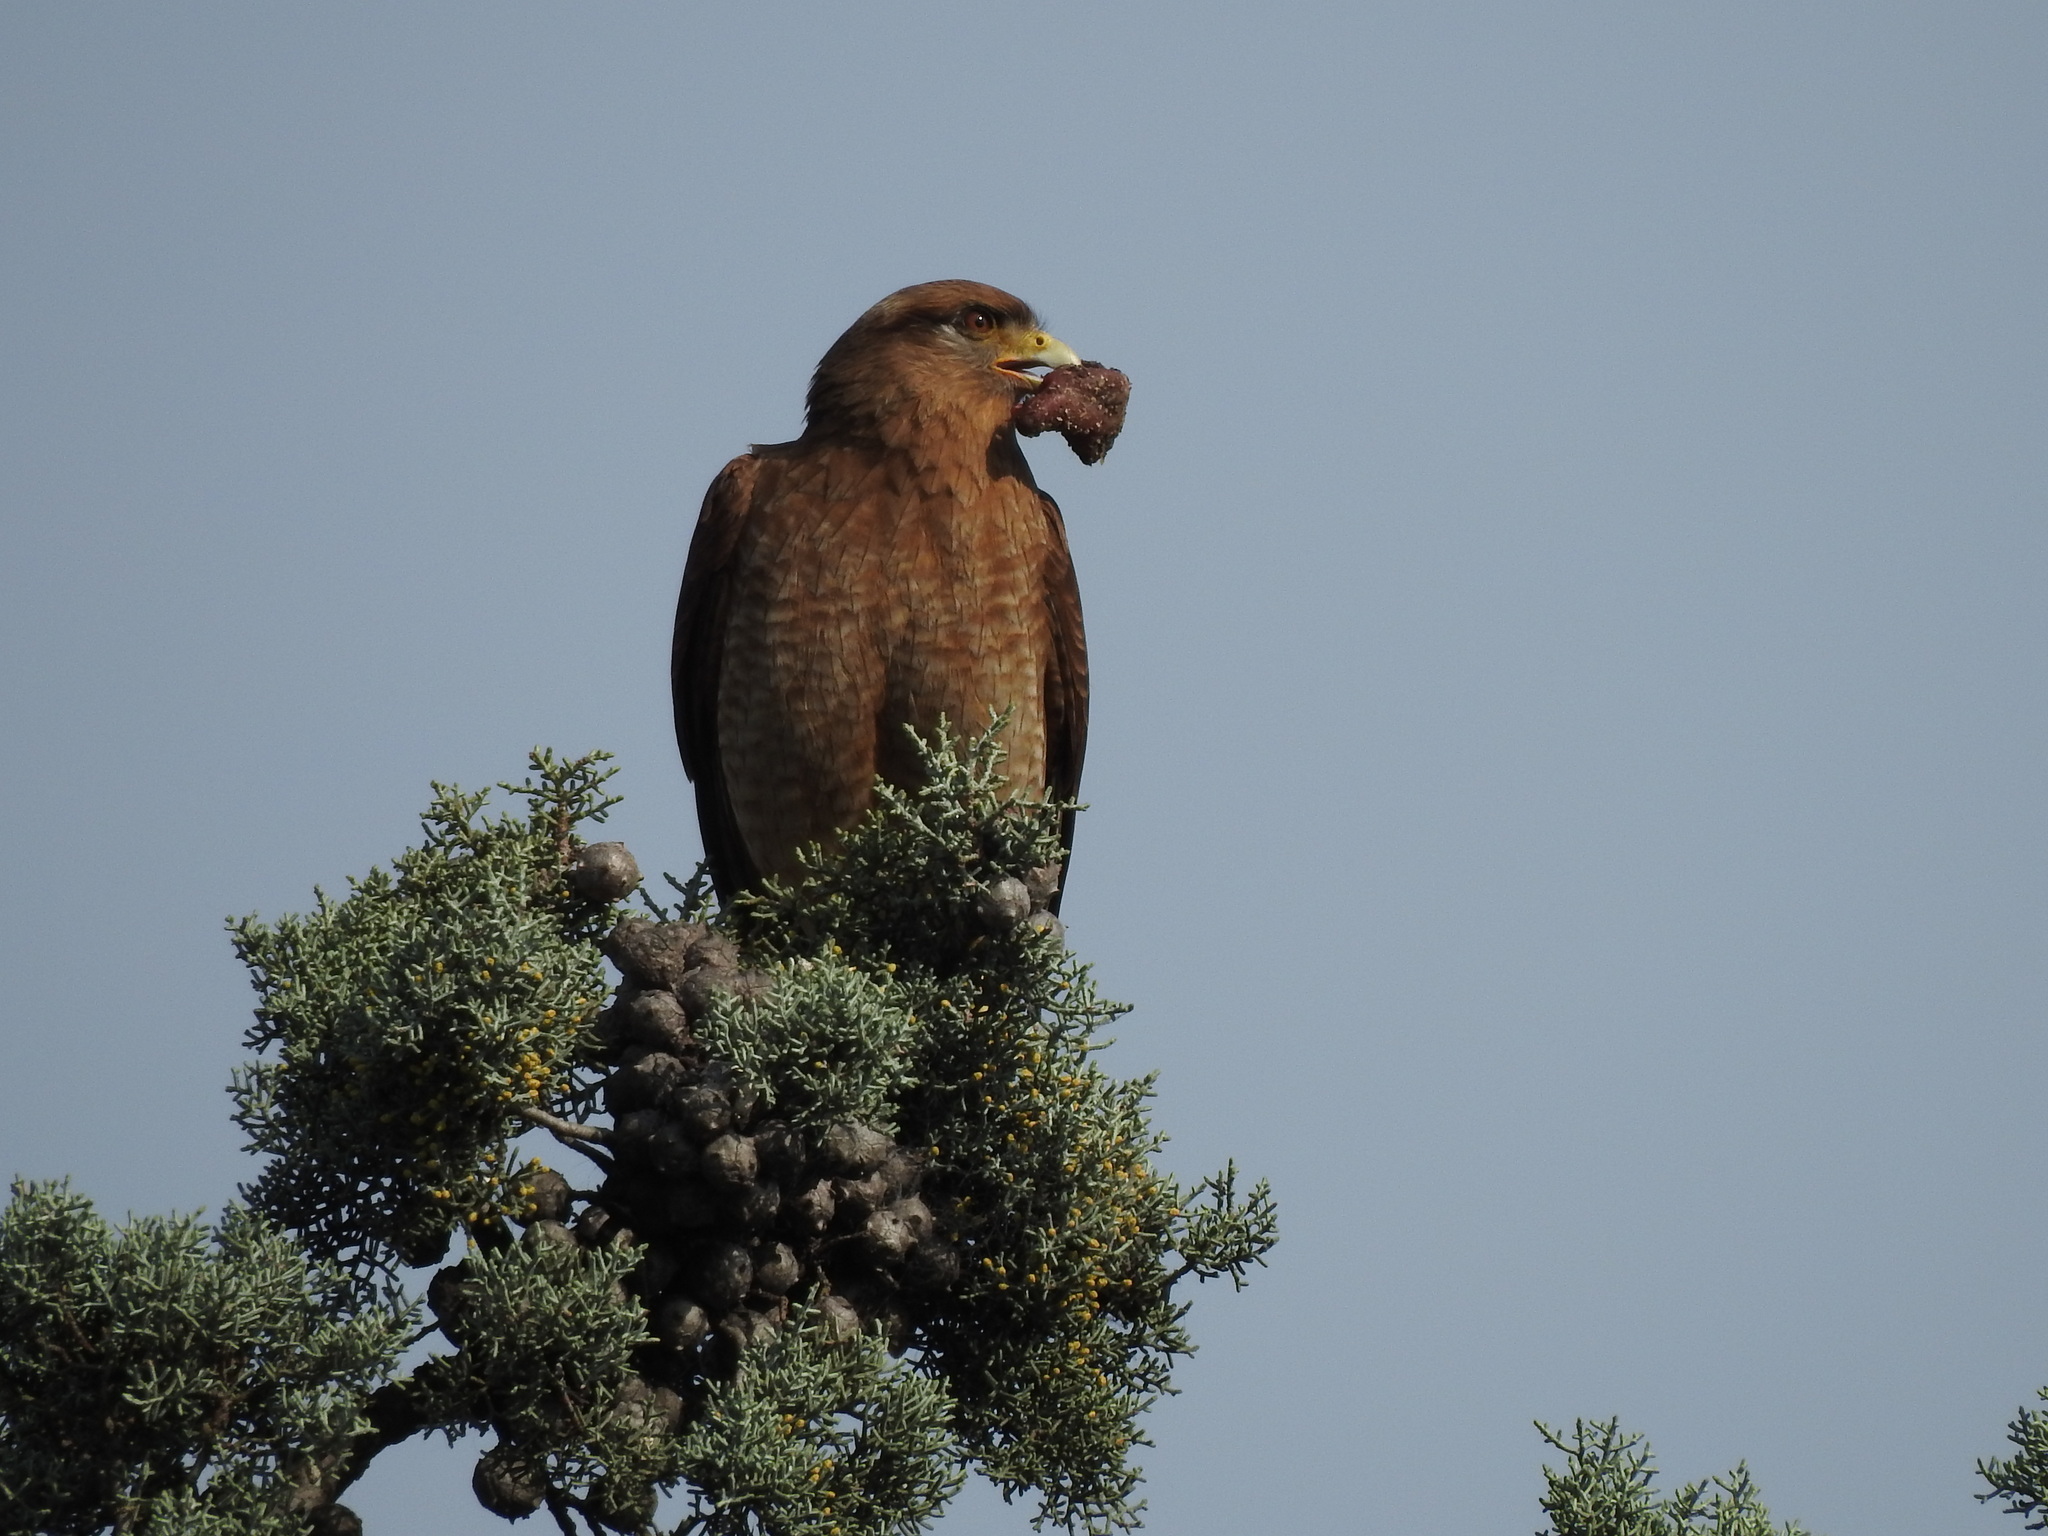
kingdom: Animalia
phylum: Chordata
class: Aves
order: Falconiformes
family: Falconidae
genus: Daptrius
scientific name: Daptrius
